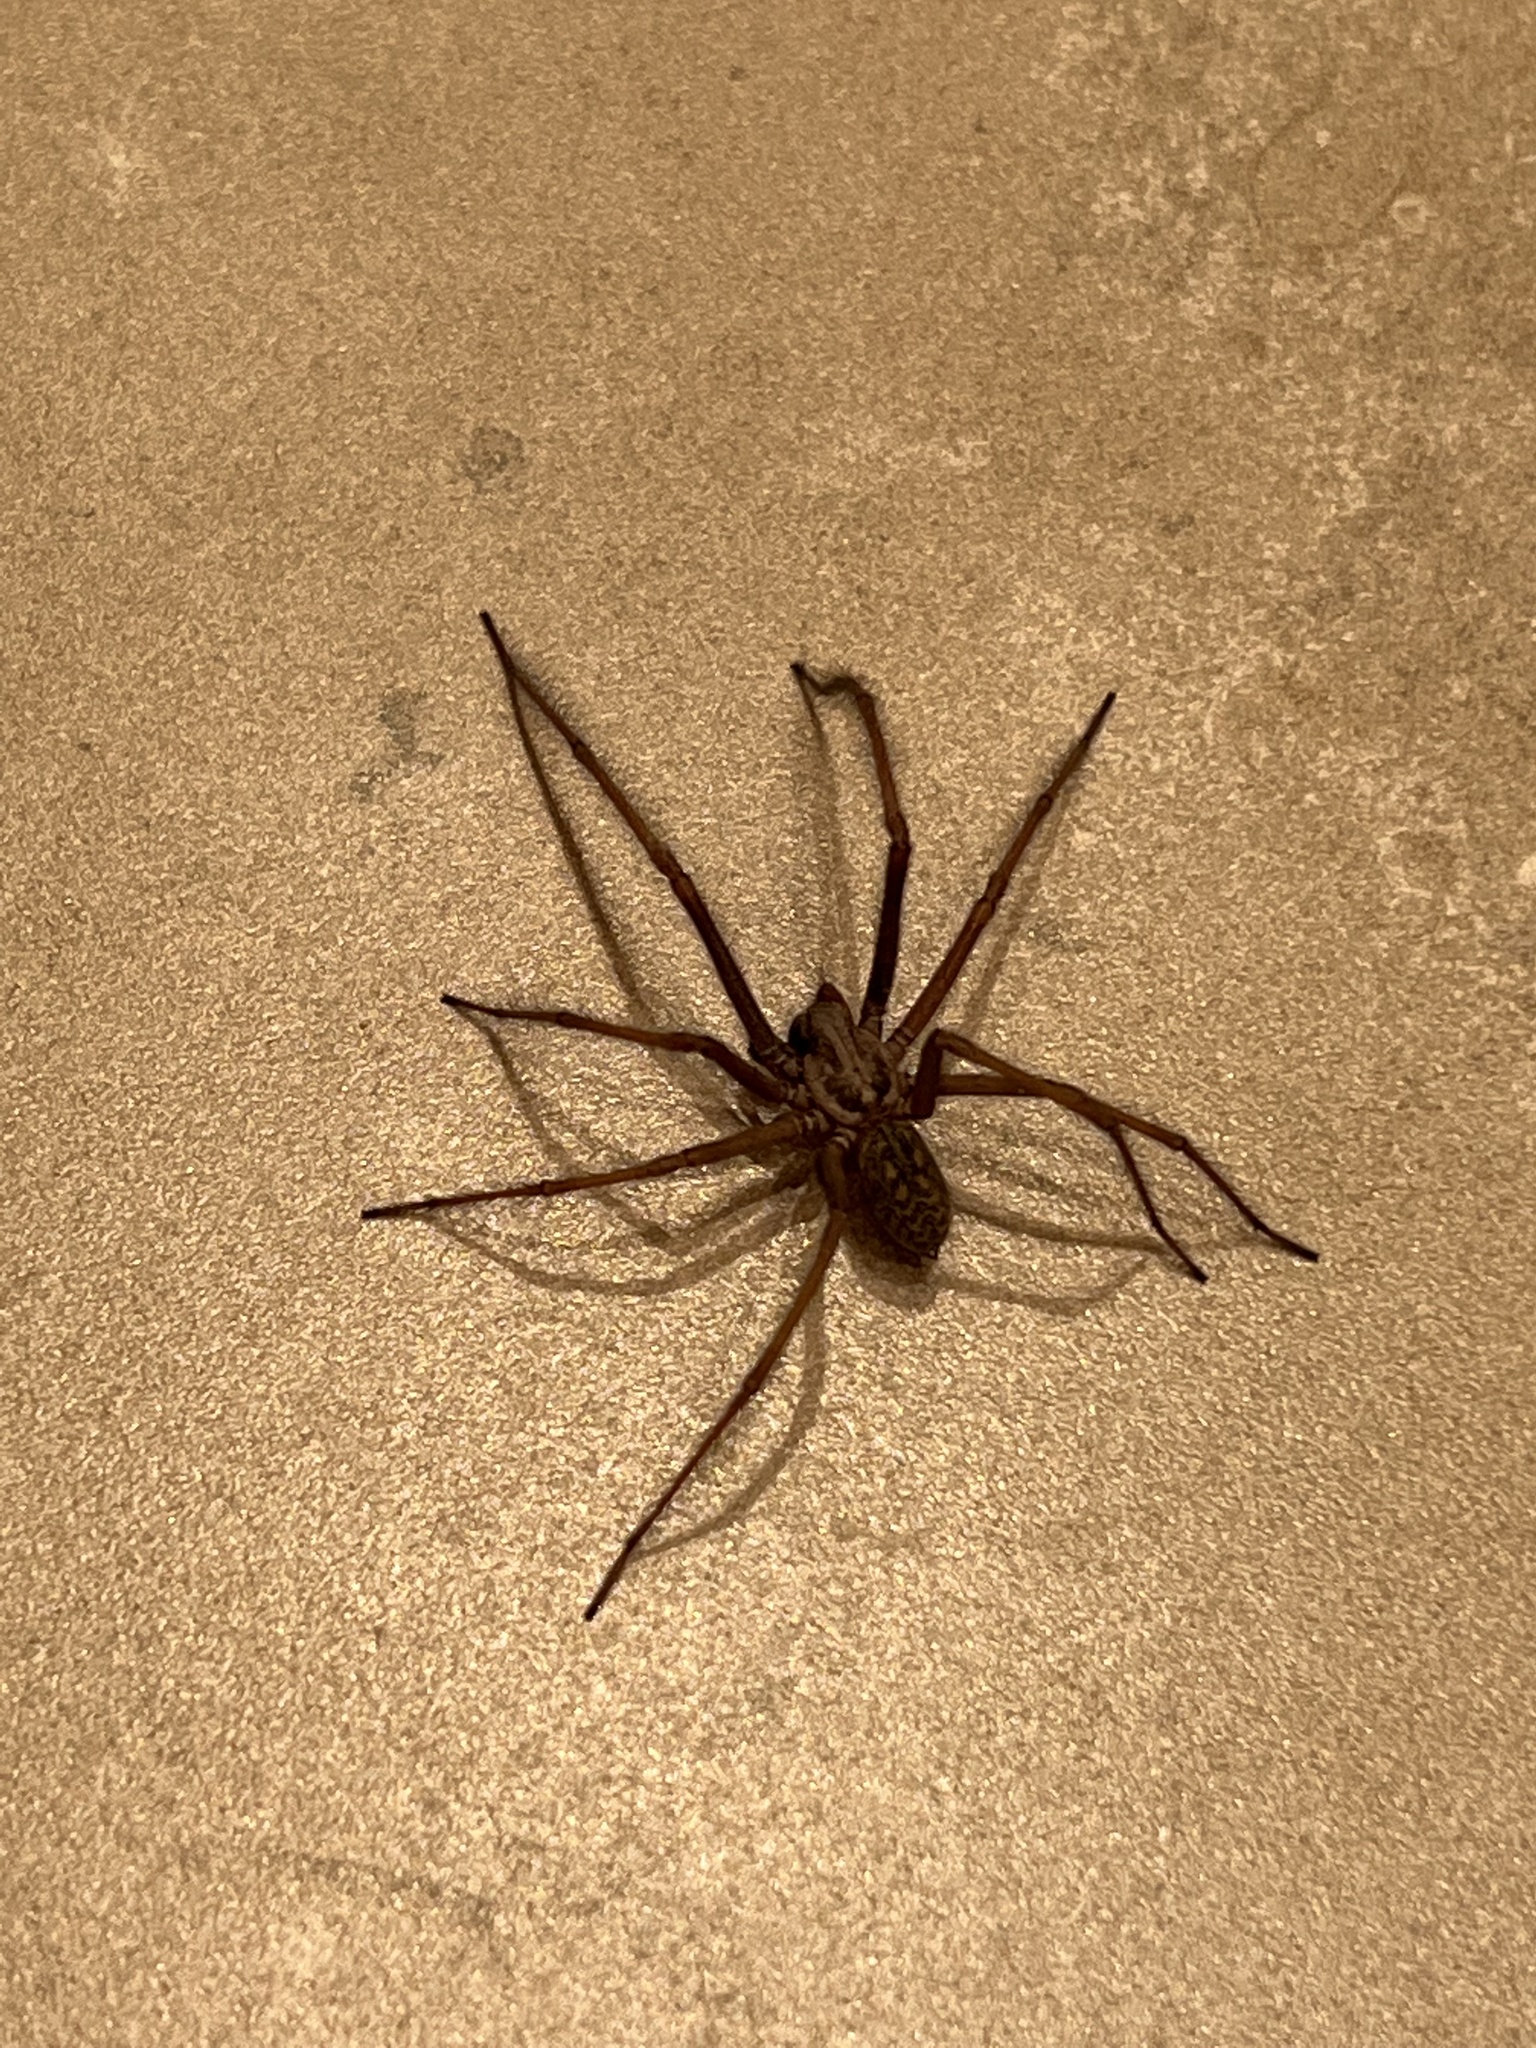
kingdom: Animalia
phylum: Arthropoda
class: Arachnida
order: Araneae
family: Agelenidae
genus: Eratigena
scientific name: Eratigena atrica
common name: Giant house spider
